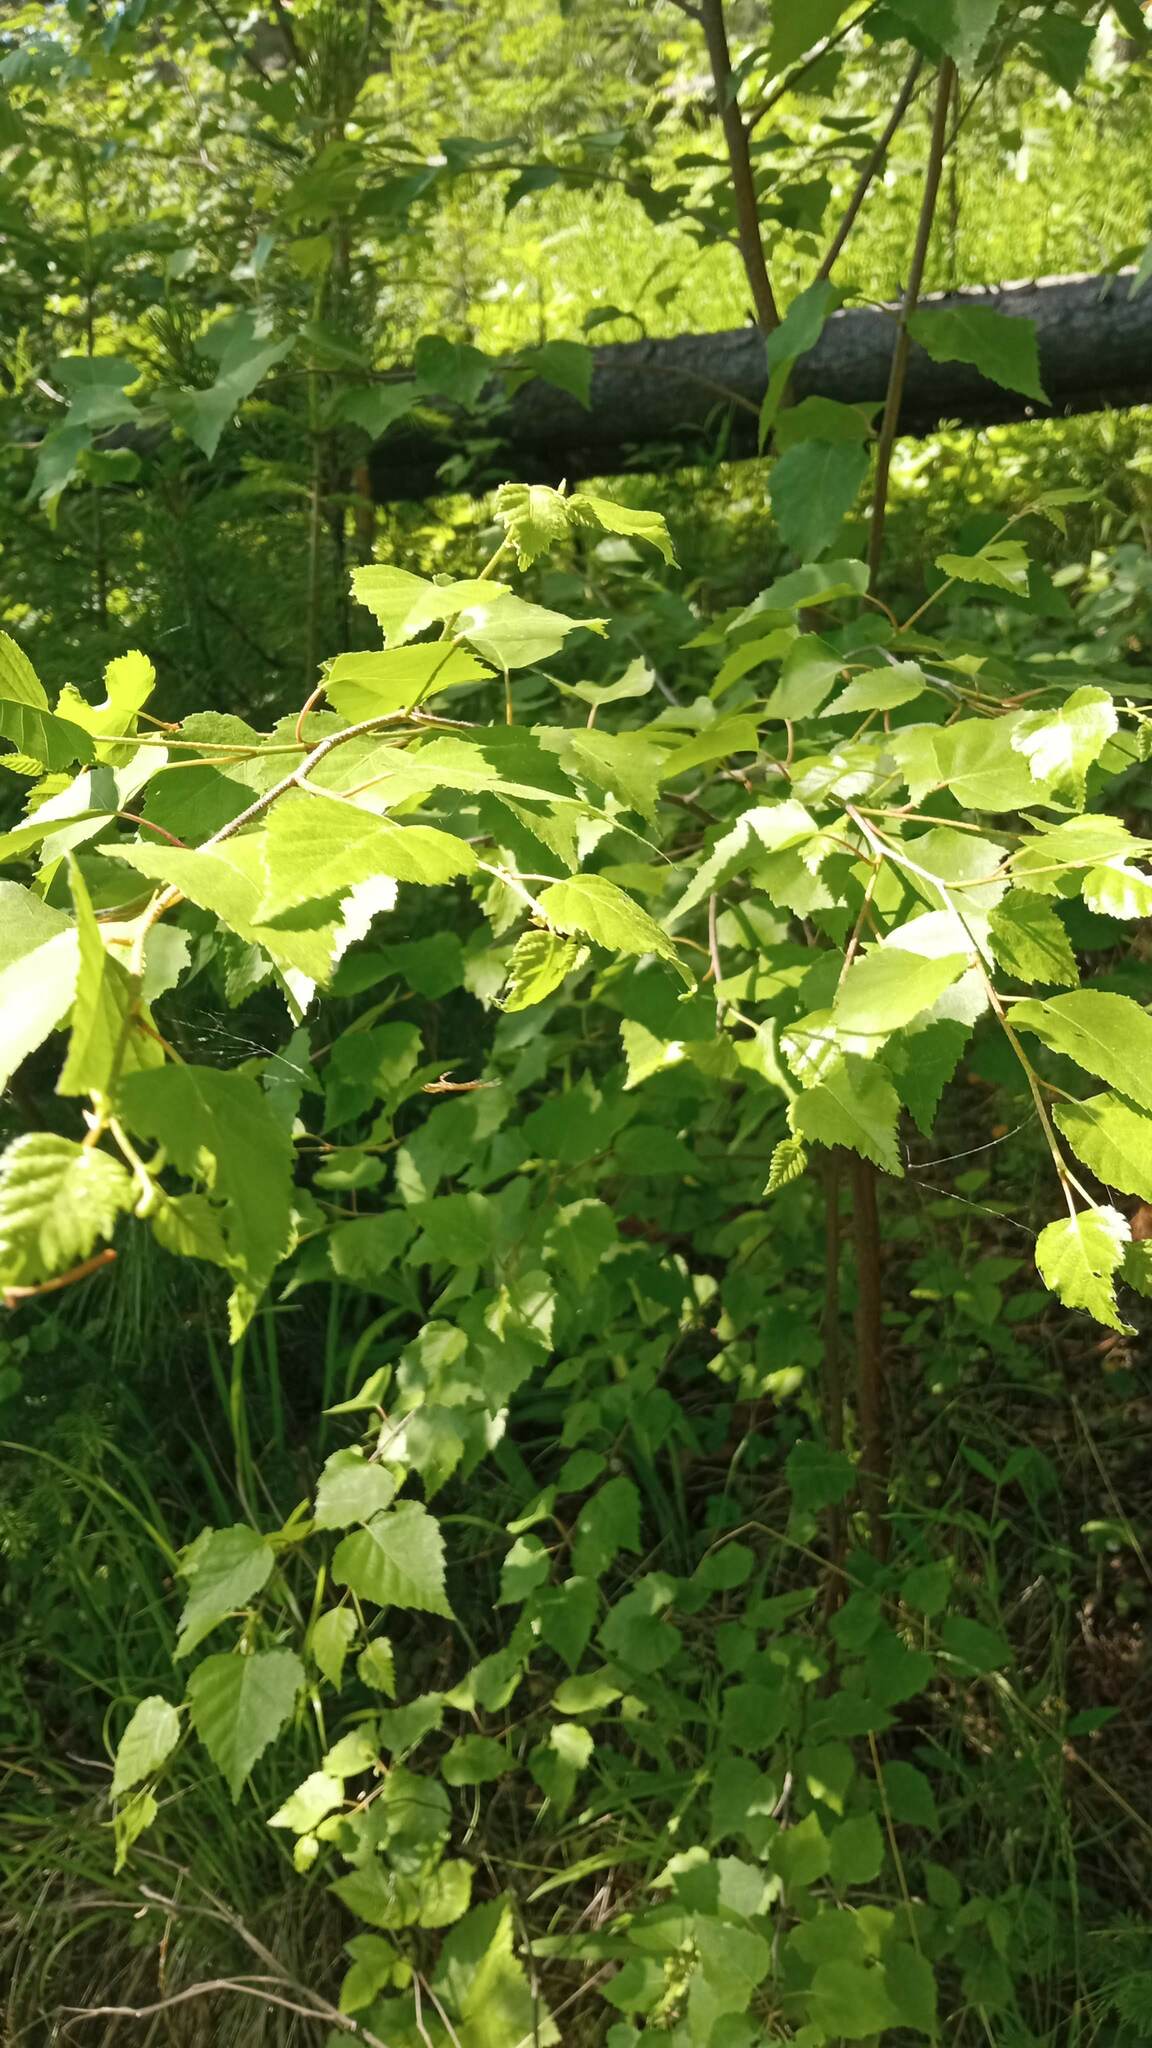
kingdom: Plantae
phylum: Tracheophyta
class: Magnoliopsida
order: Fagales
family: Betulaceae
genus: Betula
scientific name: Betula pubescens
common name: Downy birch
